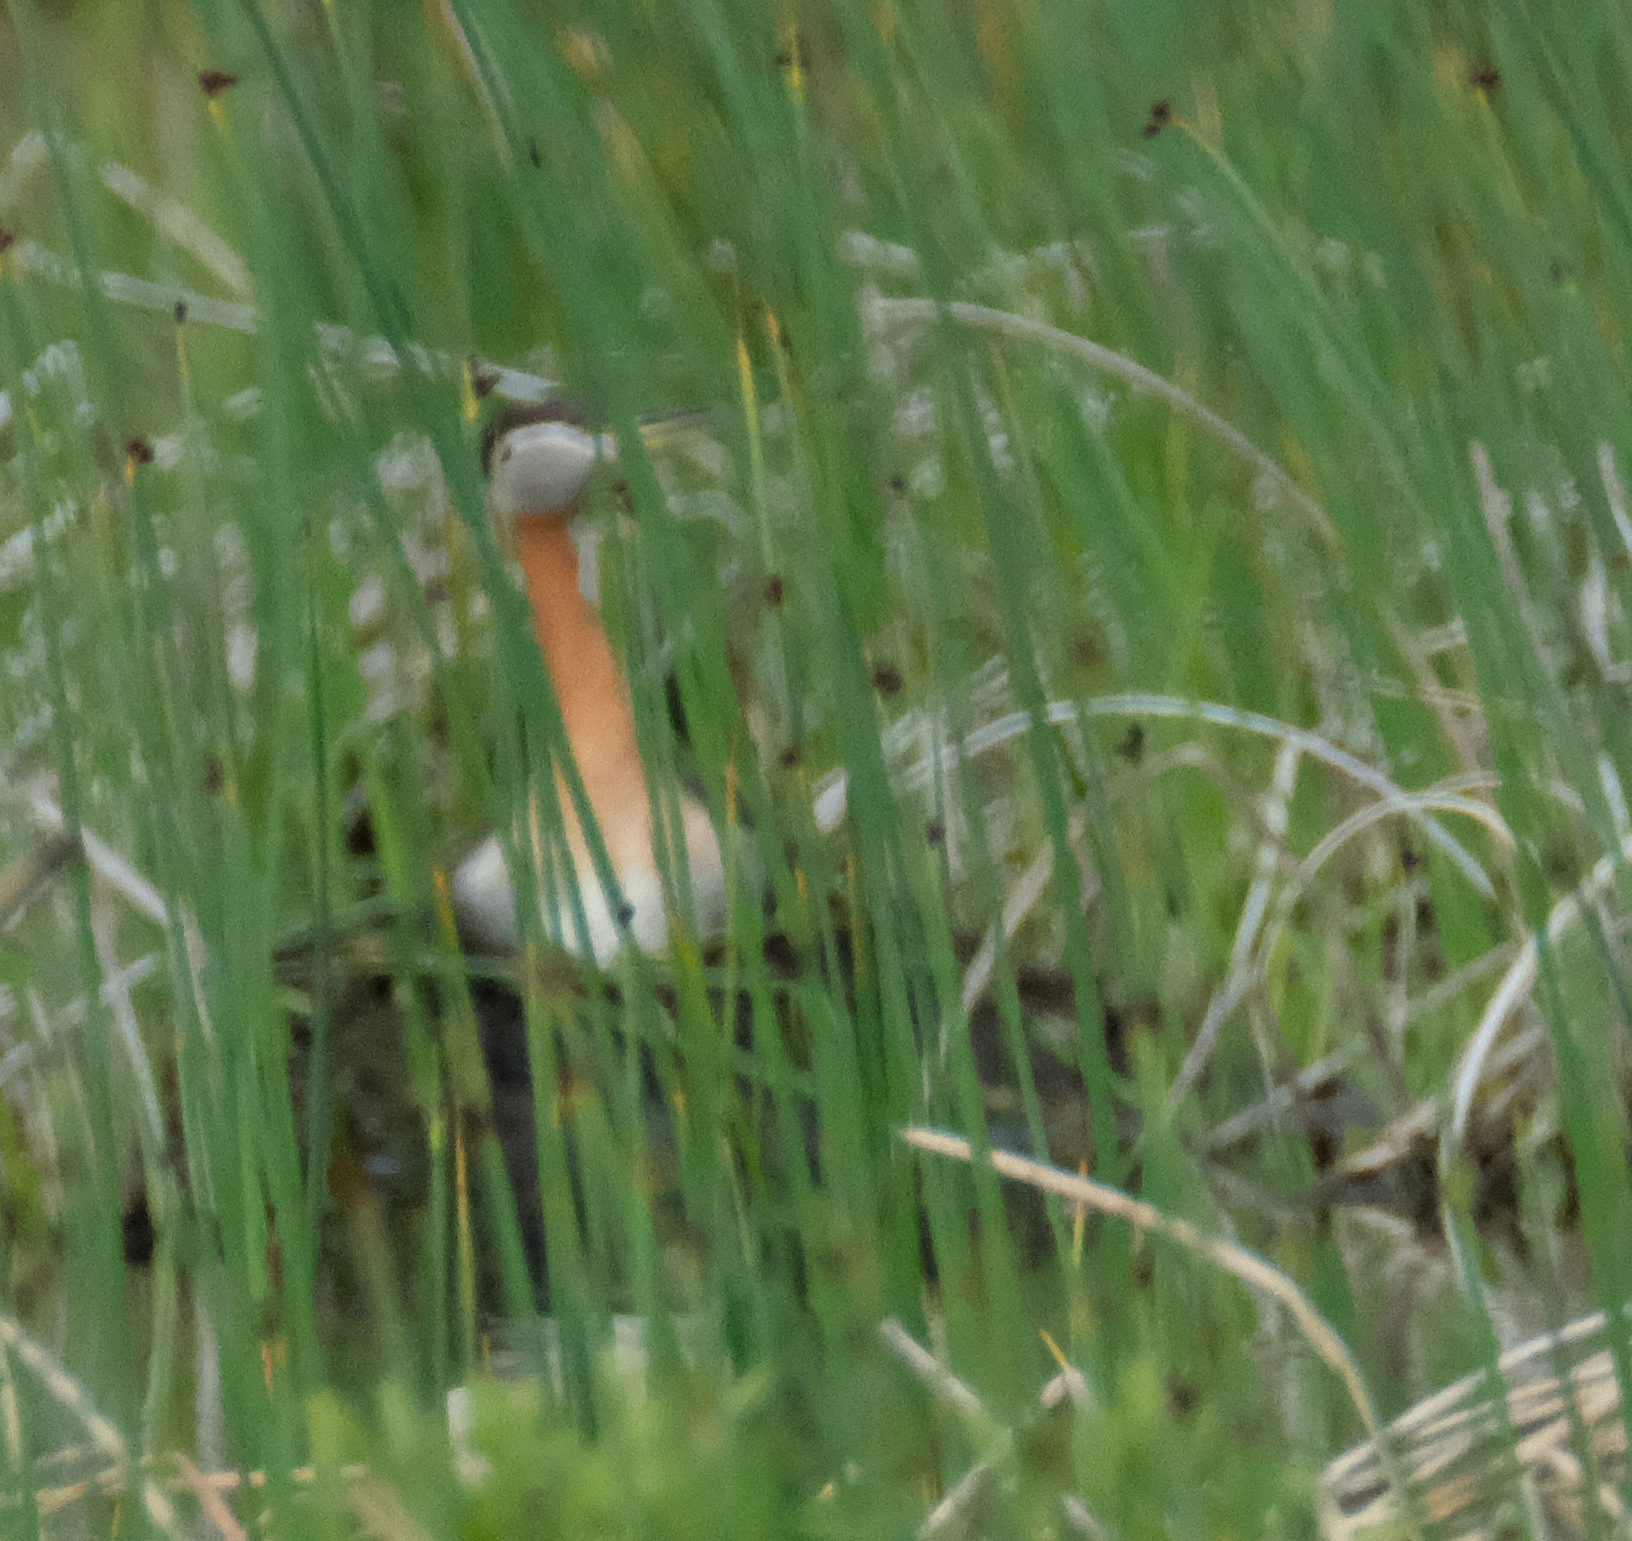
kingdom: Animalia
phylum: Chordata
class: Aves
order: Podicipediformes
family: Podicipedidae
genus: Podiceps
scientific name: Podiceps grisegena
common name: Red-necked grebe
